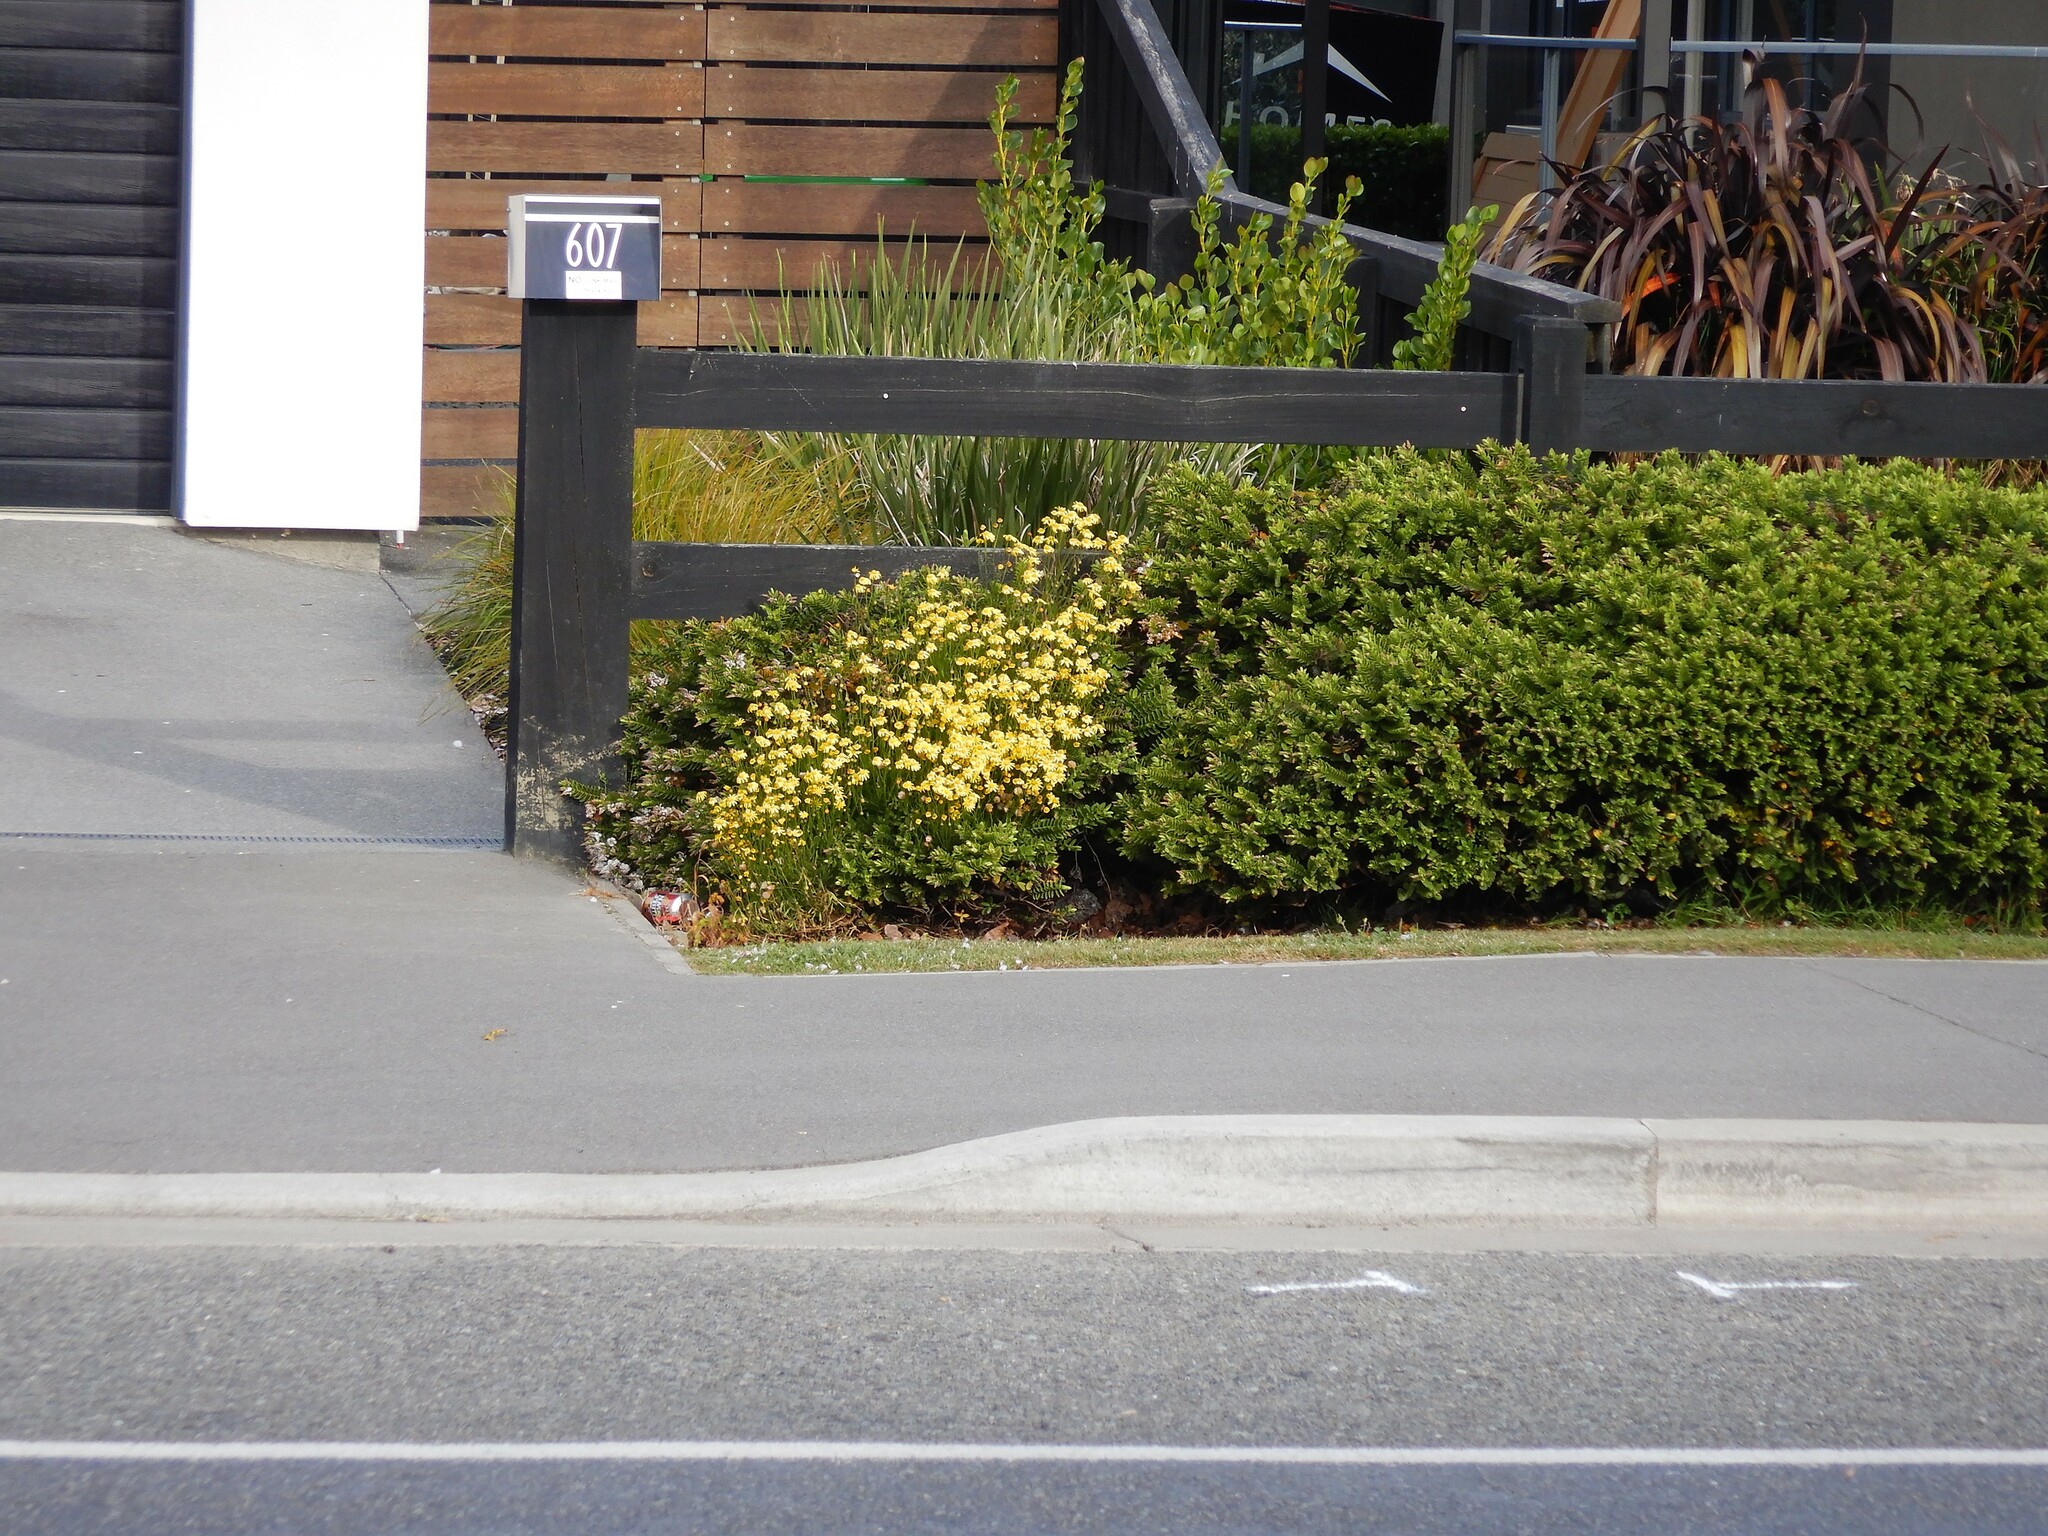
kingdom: Plantae
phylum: Tracheophyta
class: Magnoliopsida
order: Asterales
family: Asteraceae
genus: Senecio
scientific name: Senecio skirrhodon
